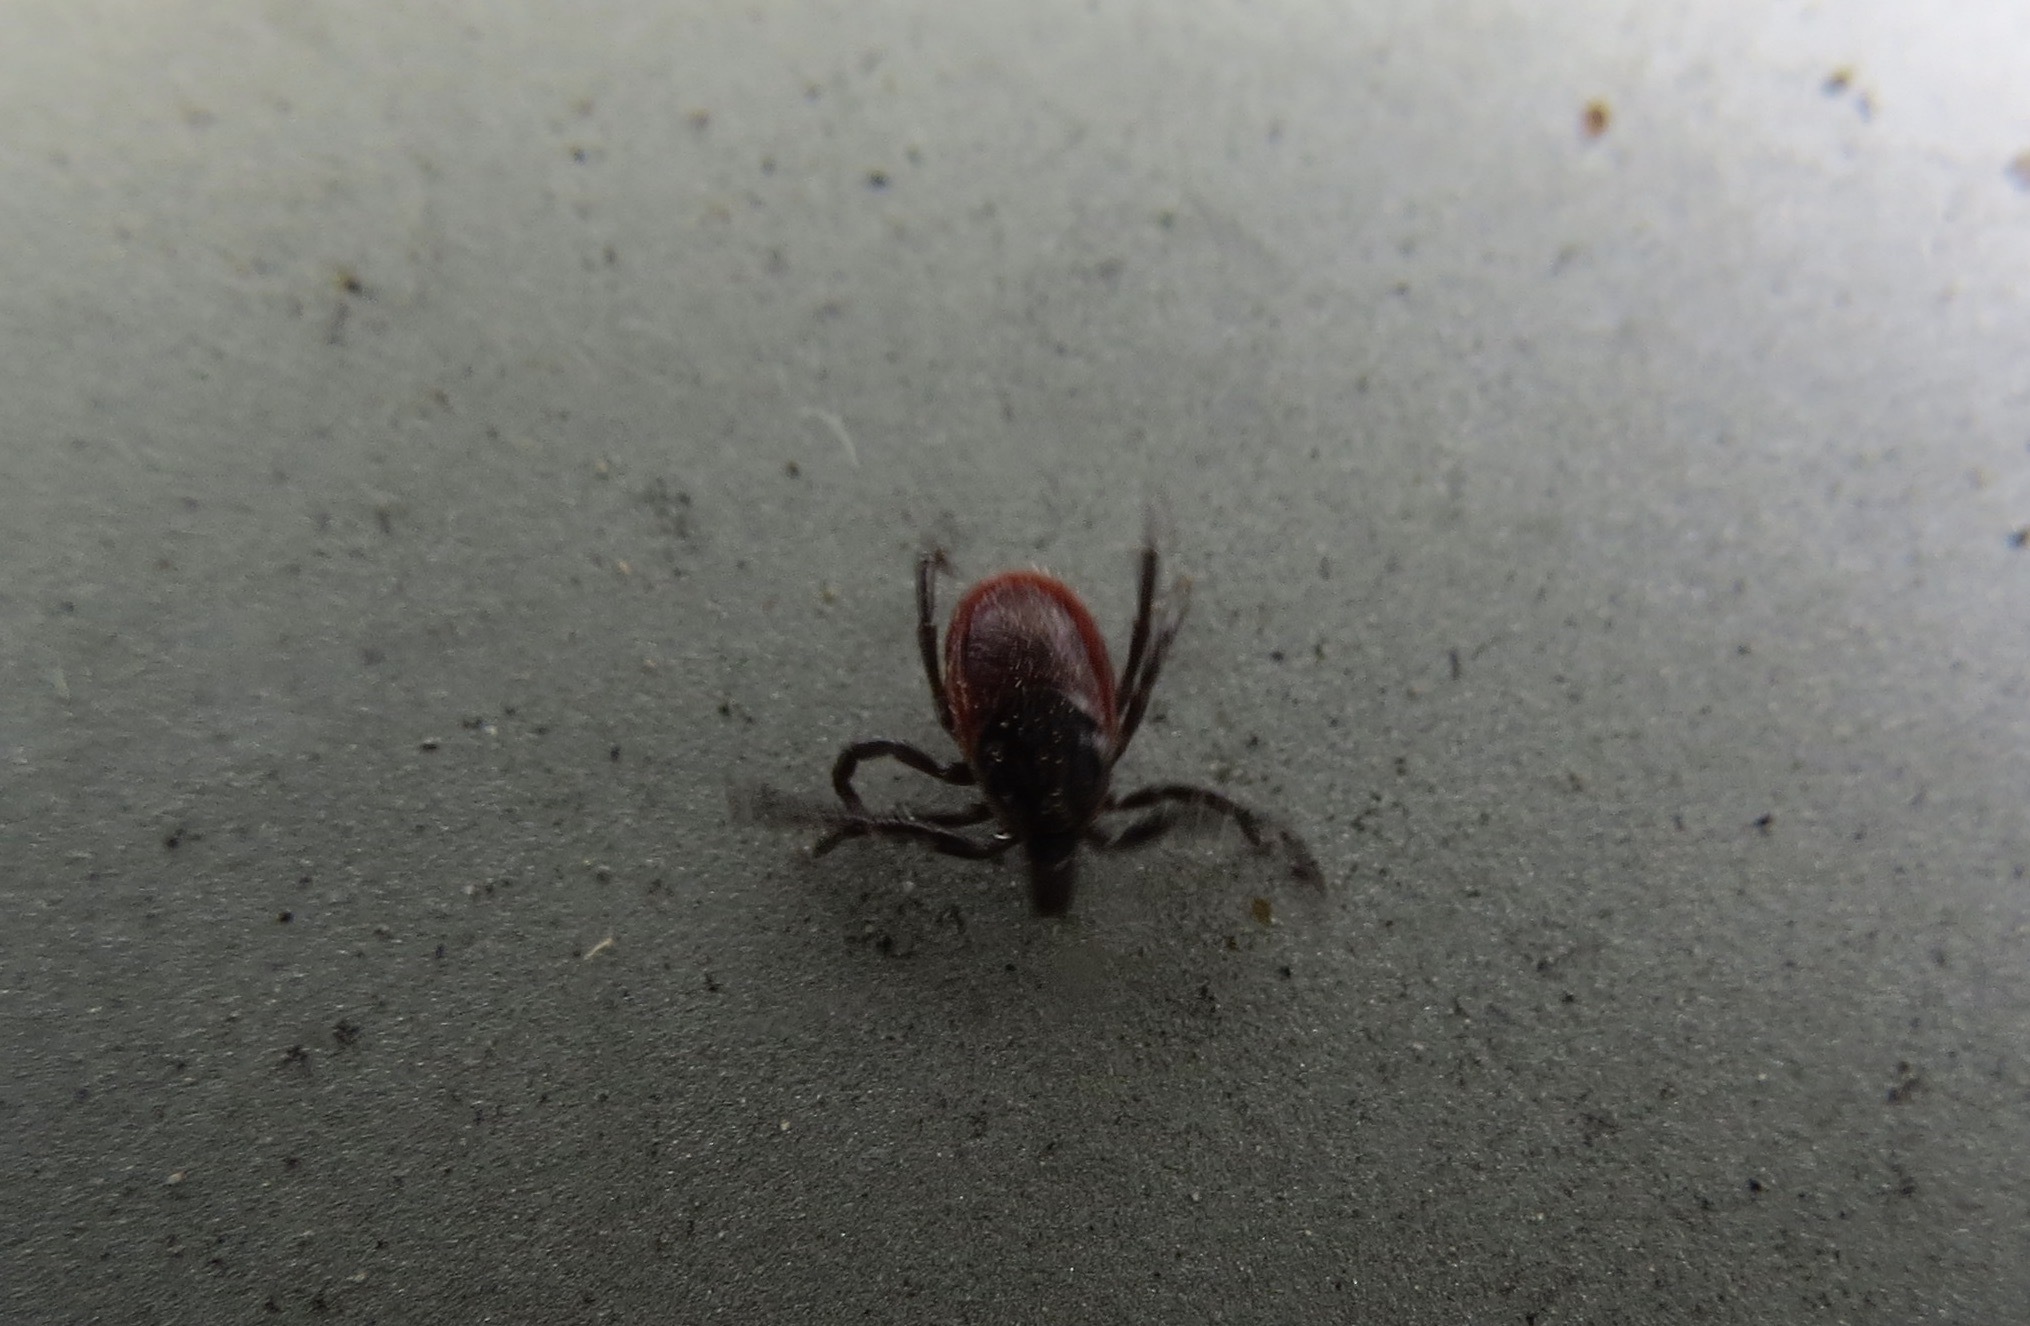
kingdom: Animalia
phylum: Arthropoda
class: Arachnida
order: Ixodida
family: Ixodidae
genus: Ixodes
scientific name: Ixodes pacificus
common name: California black-legged tick
